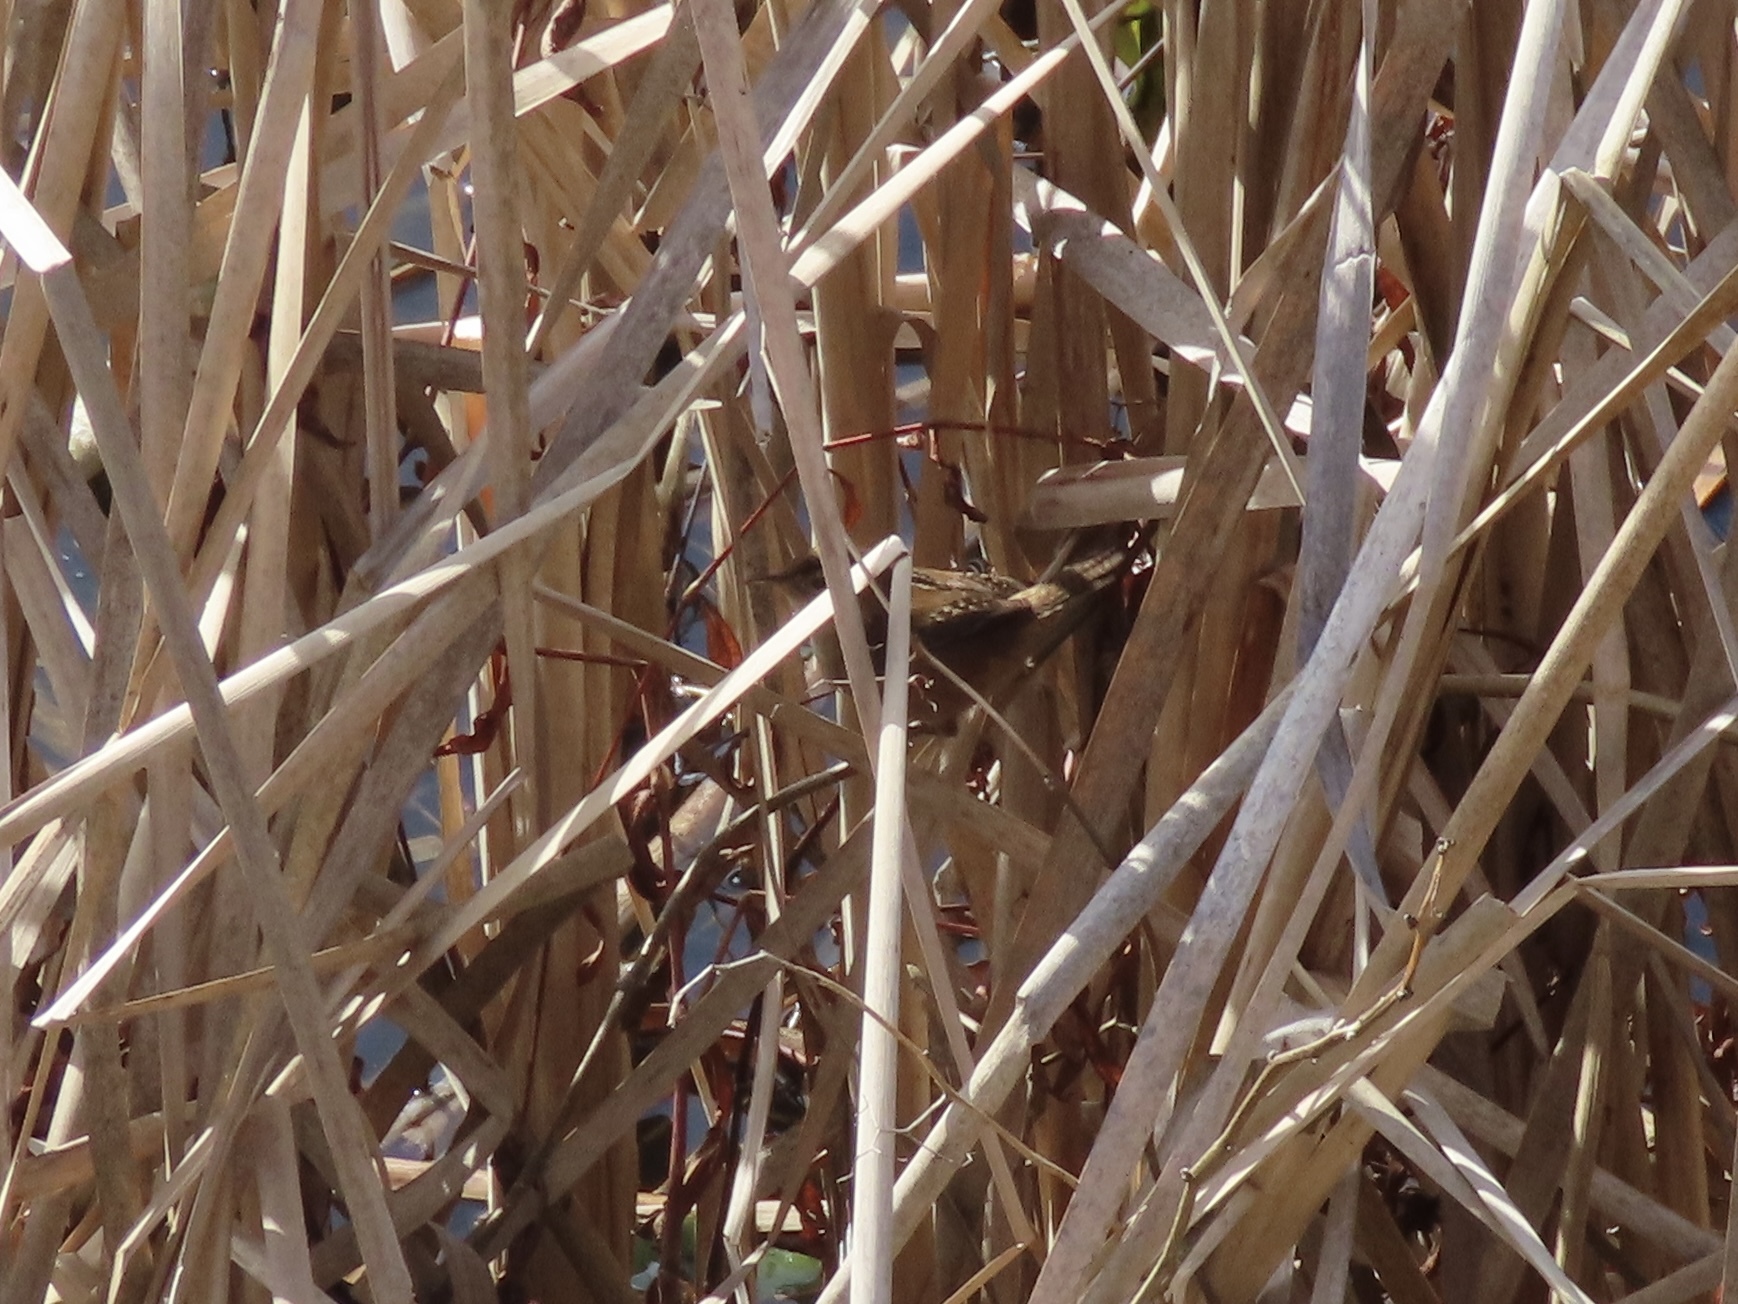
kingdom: Animalia
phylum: Chordata
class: Aves
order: Passeriformes
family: Troglodytidae
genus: Cistothorus
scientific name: Cistothorus palustris
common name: Marsh wren
